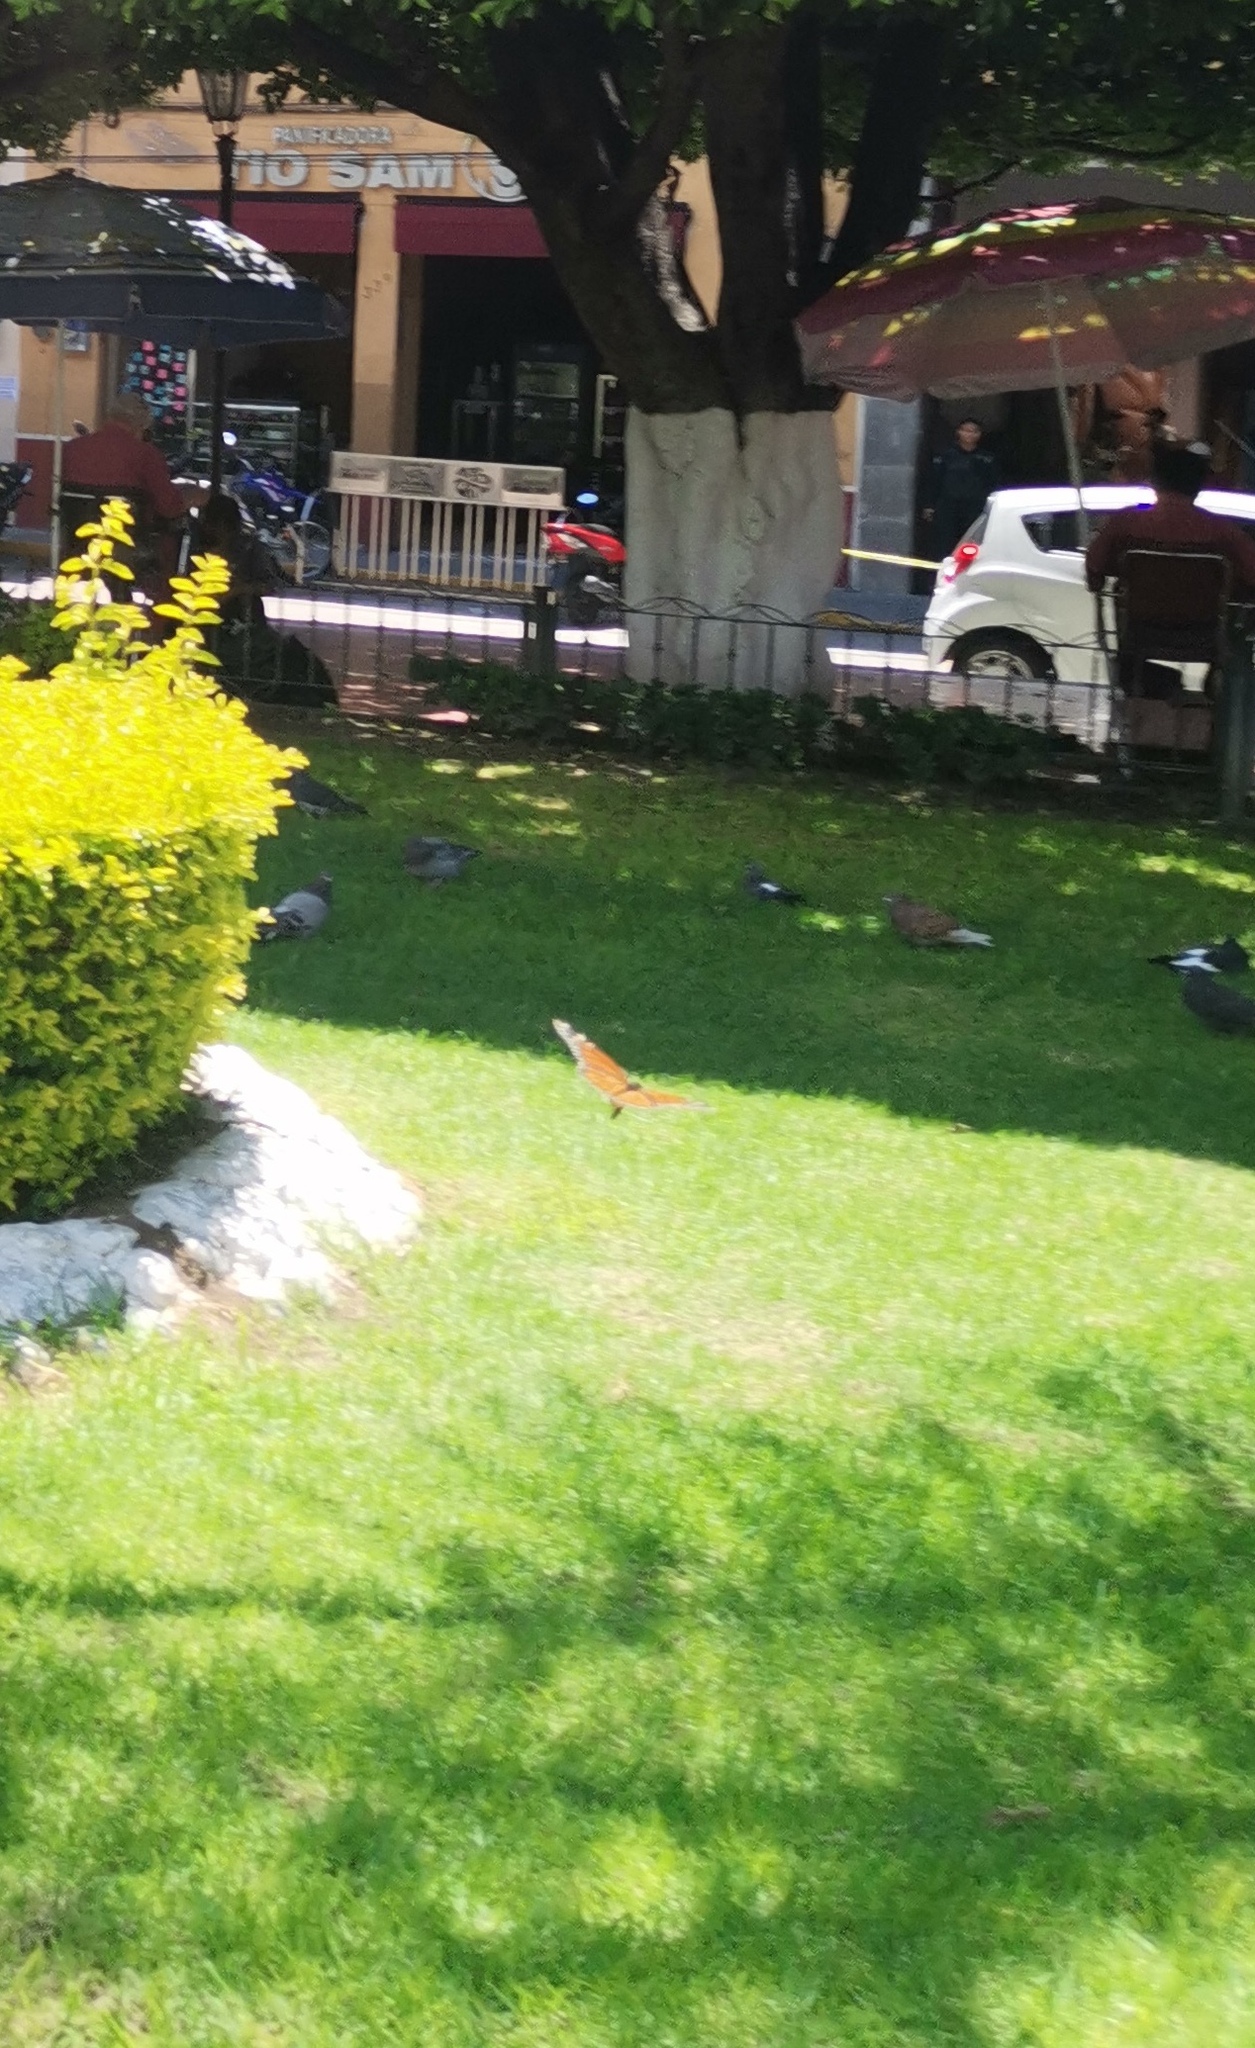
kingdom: Animalia
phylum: Arthropoda
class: Insecta
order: Lepidoptera
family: Nymphalidae
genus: Danaus
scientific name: Danaus plexippus
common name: Monarch
